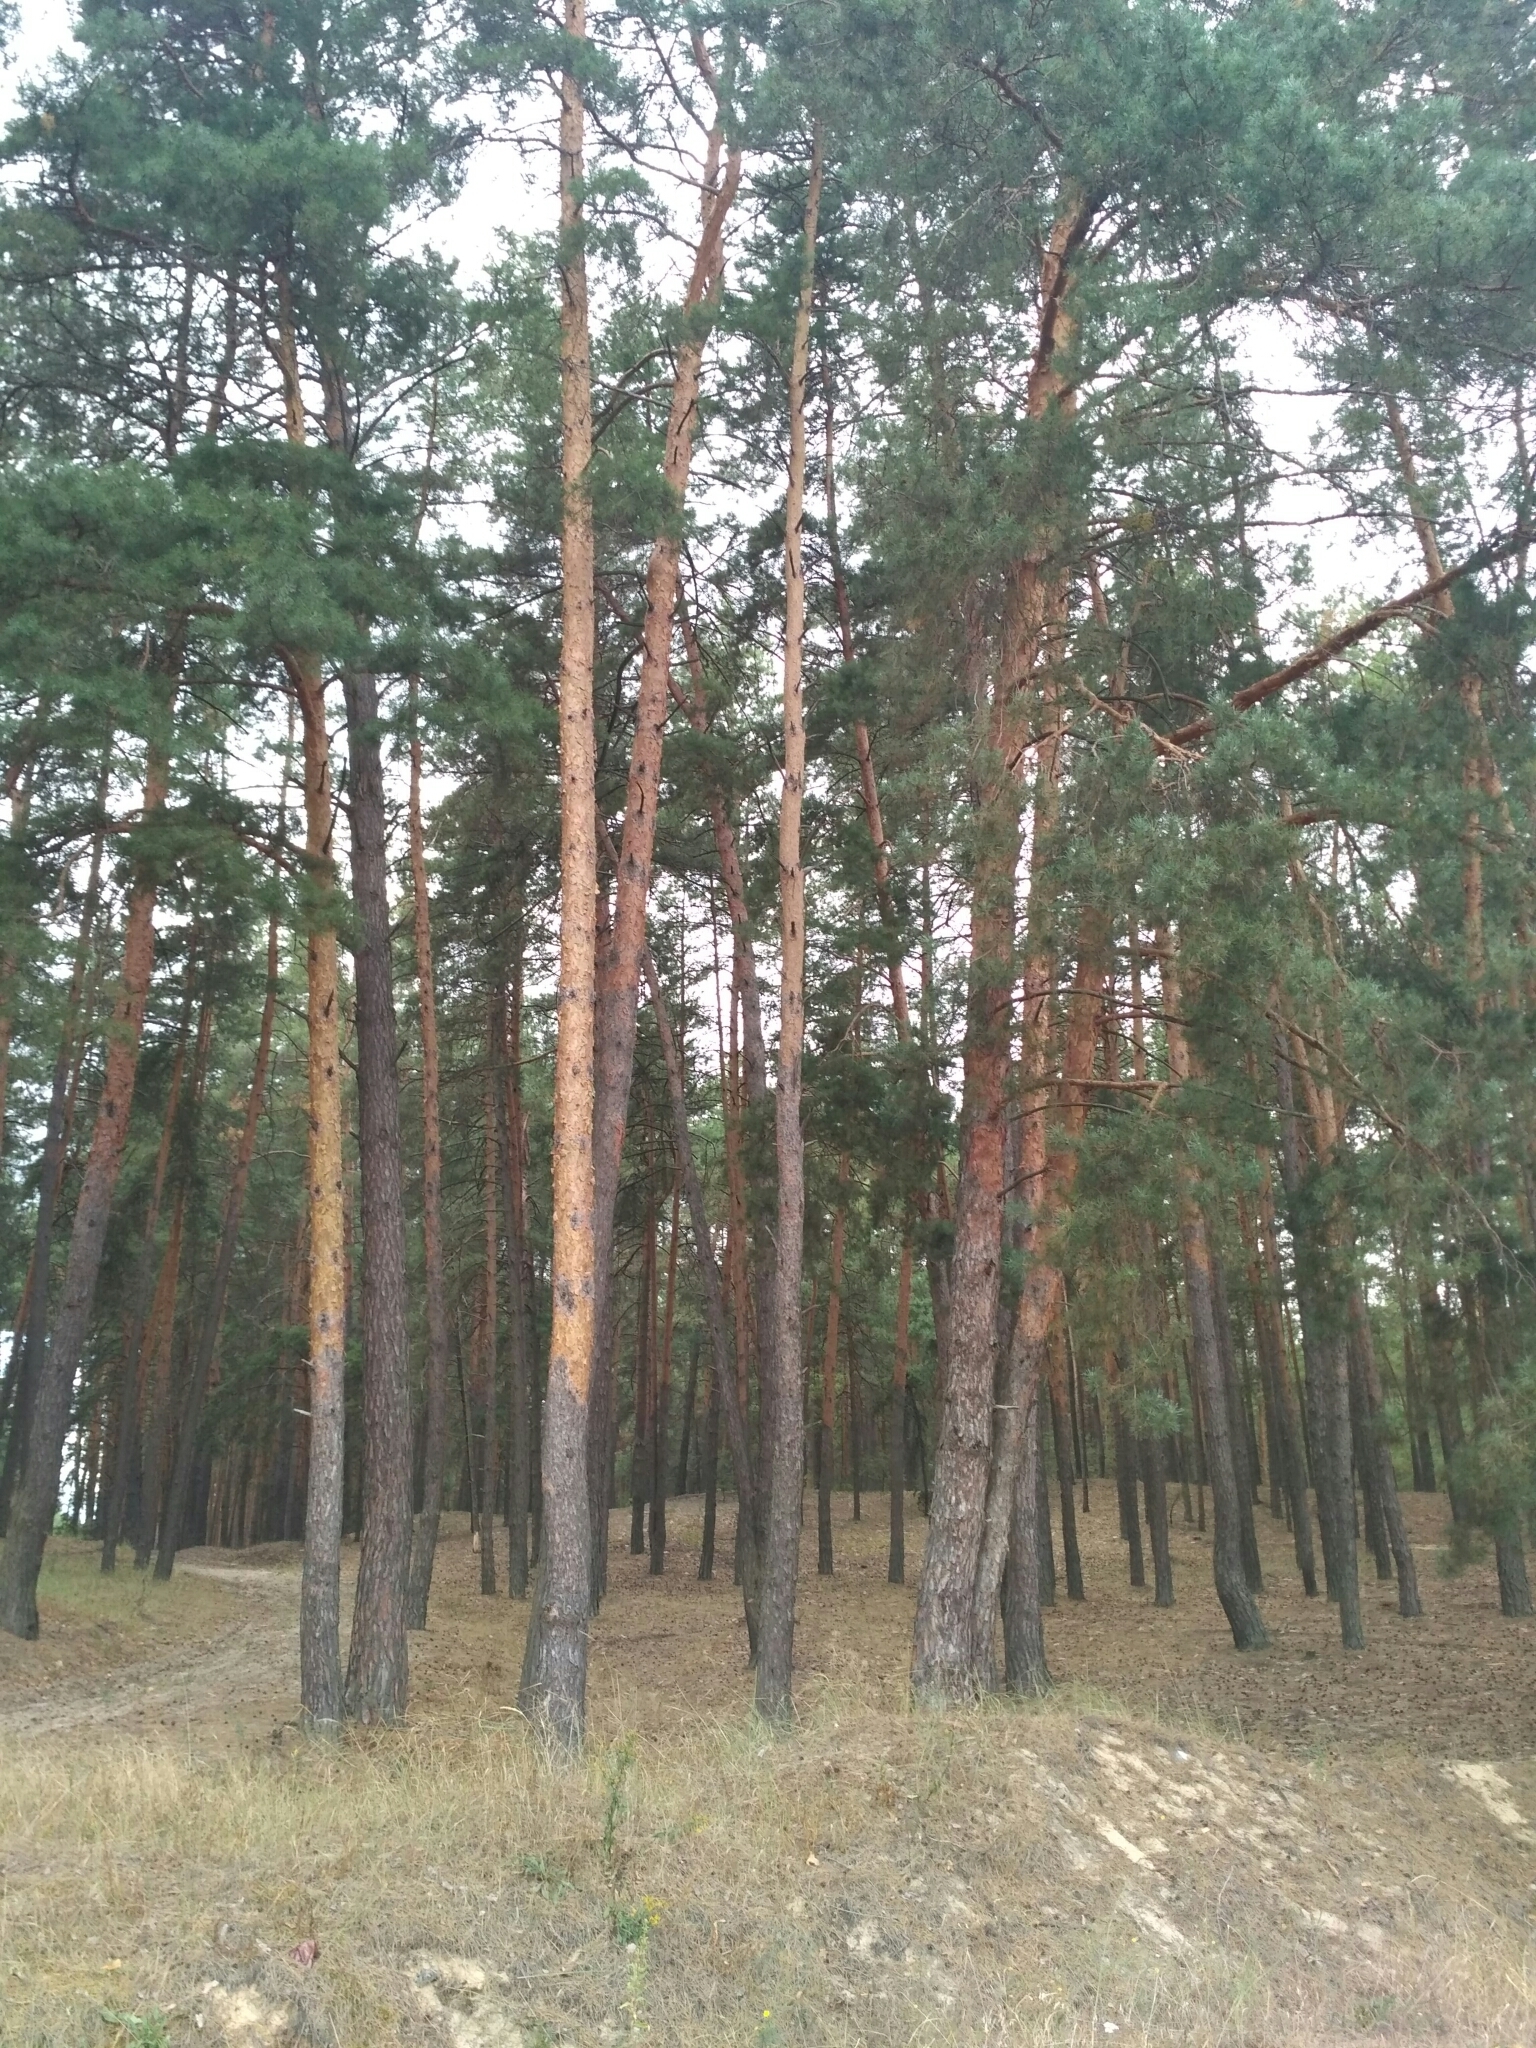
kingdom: Plantae
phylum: Tracheophyta
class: Pinopsida
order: Pinales
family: Pinaceae
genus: Pinus
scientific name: Pinus sylvestris
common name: Scots pine
